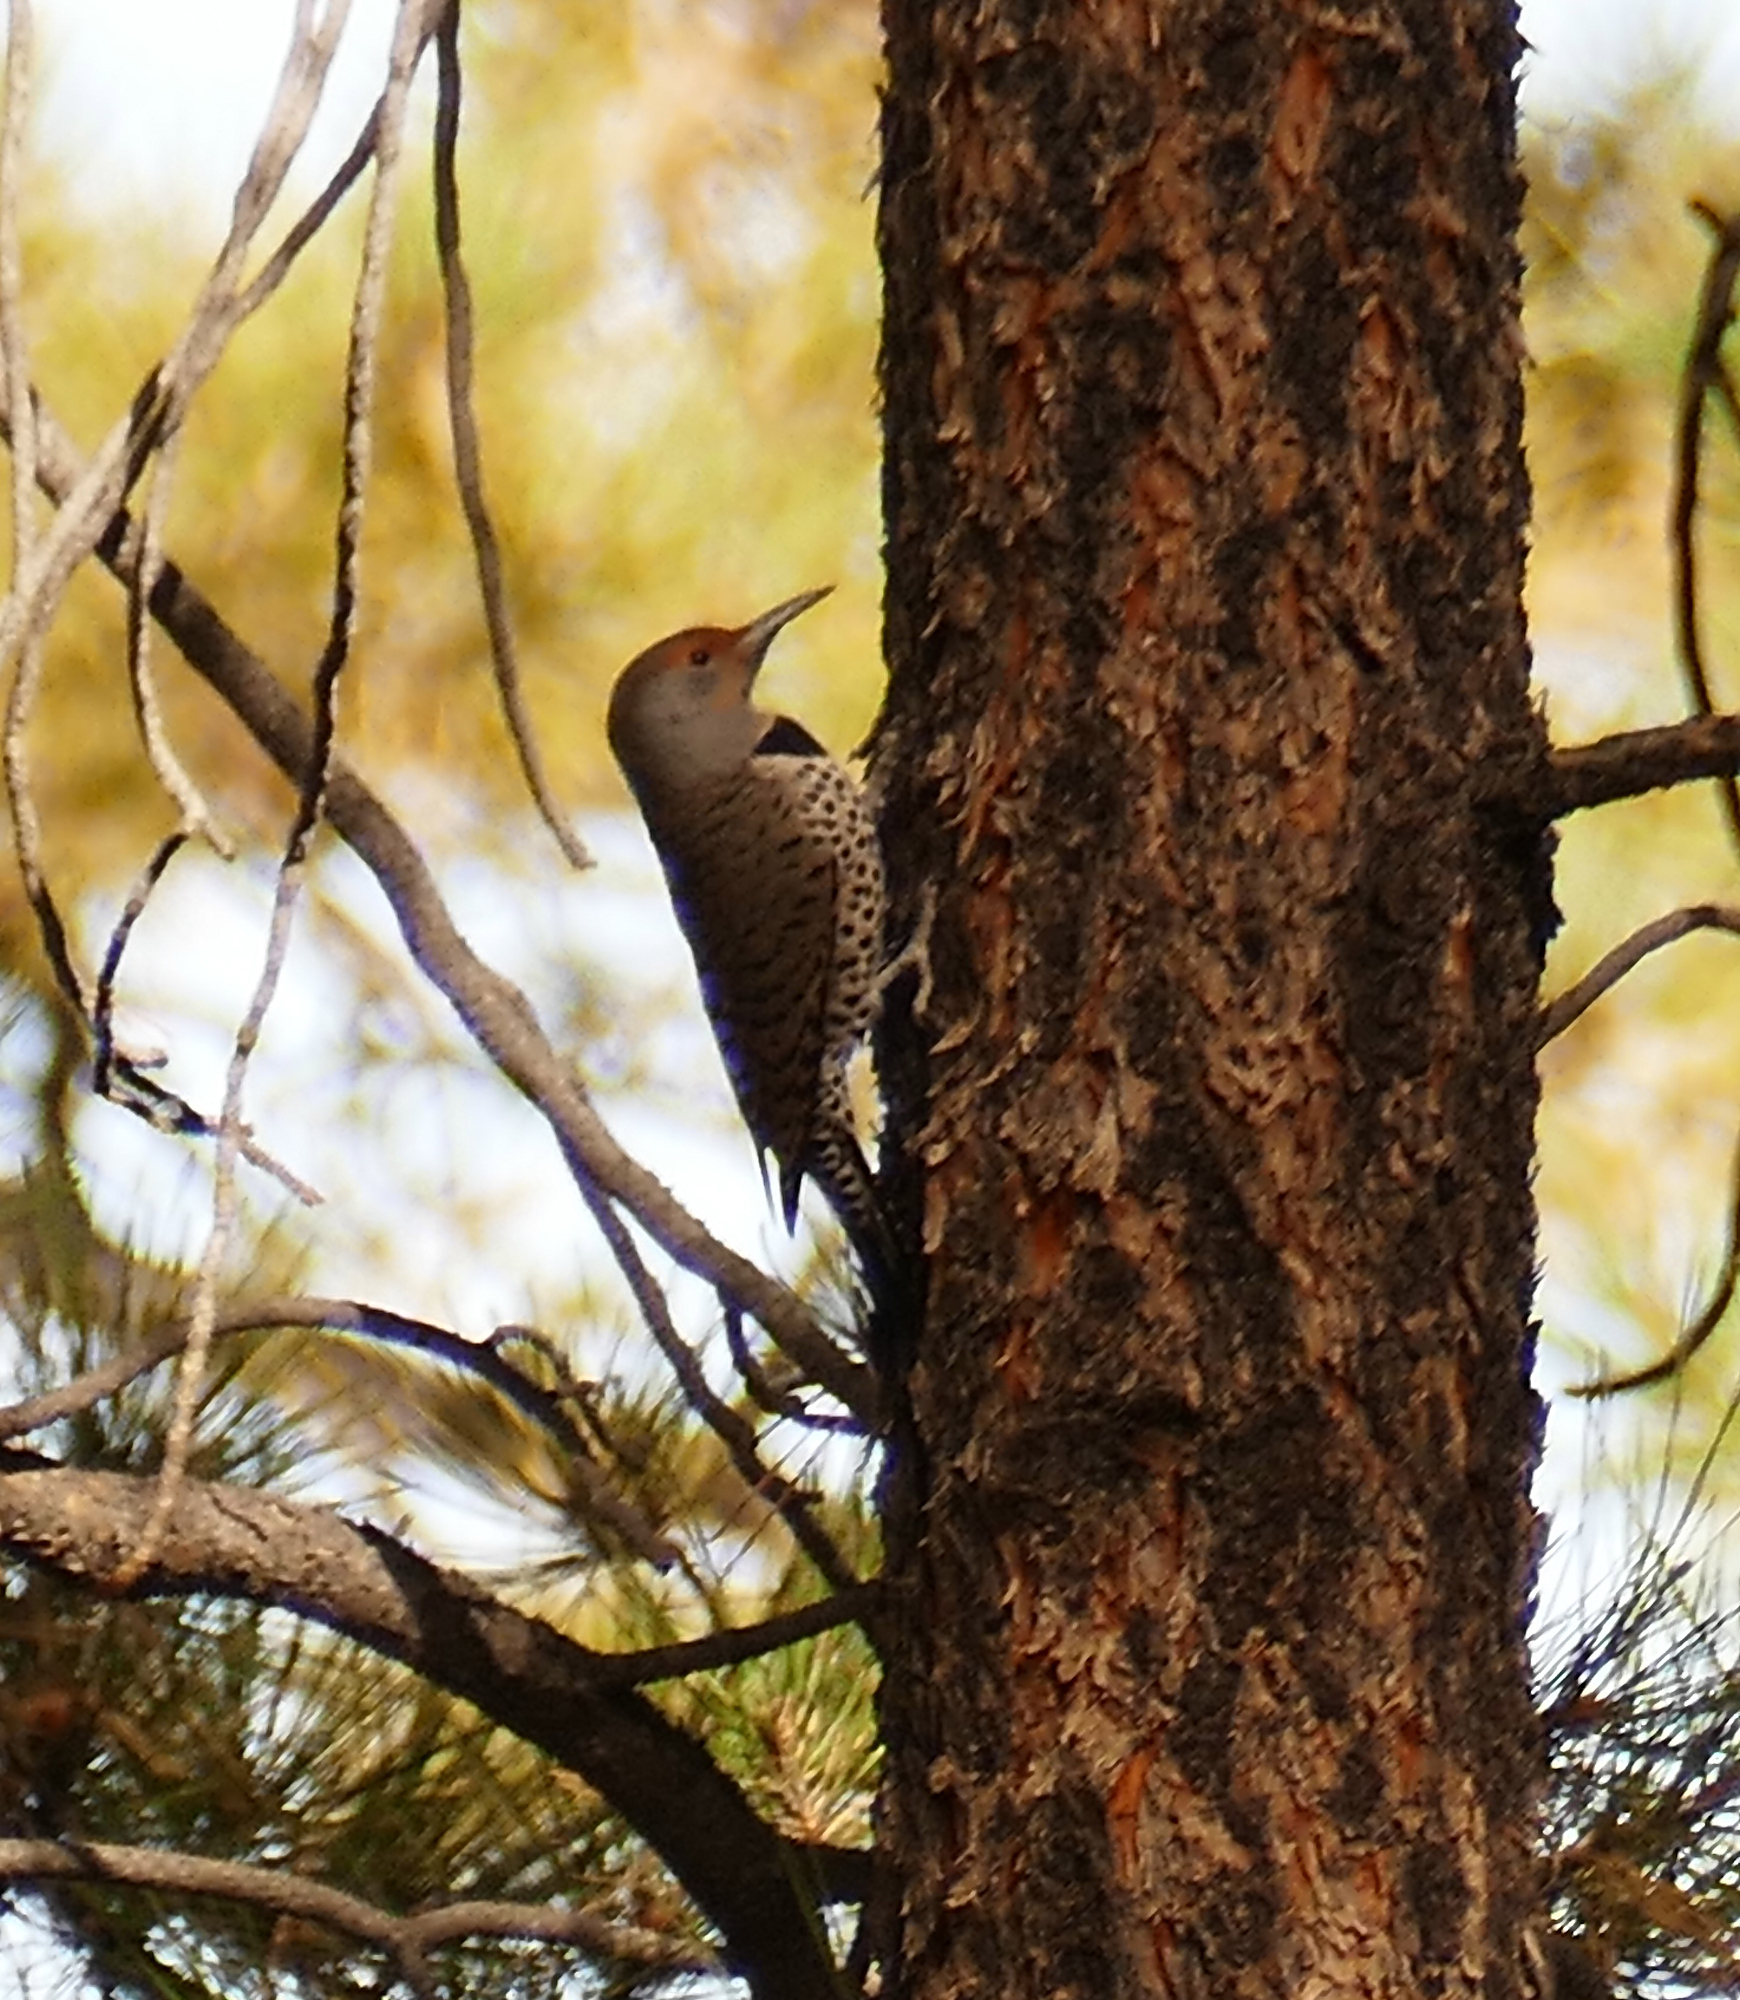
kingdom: Animalia
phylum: Chordata
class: Aves
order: Piciformes
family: Picidae
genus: Colaptes
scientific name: Colaptes auratus
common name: Northern flicker
